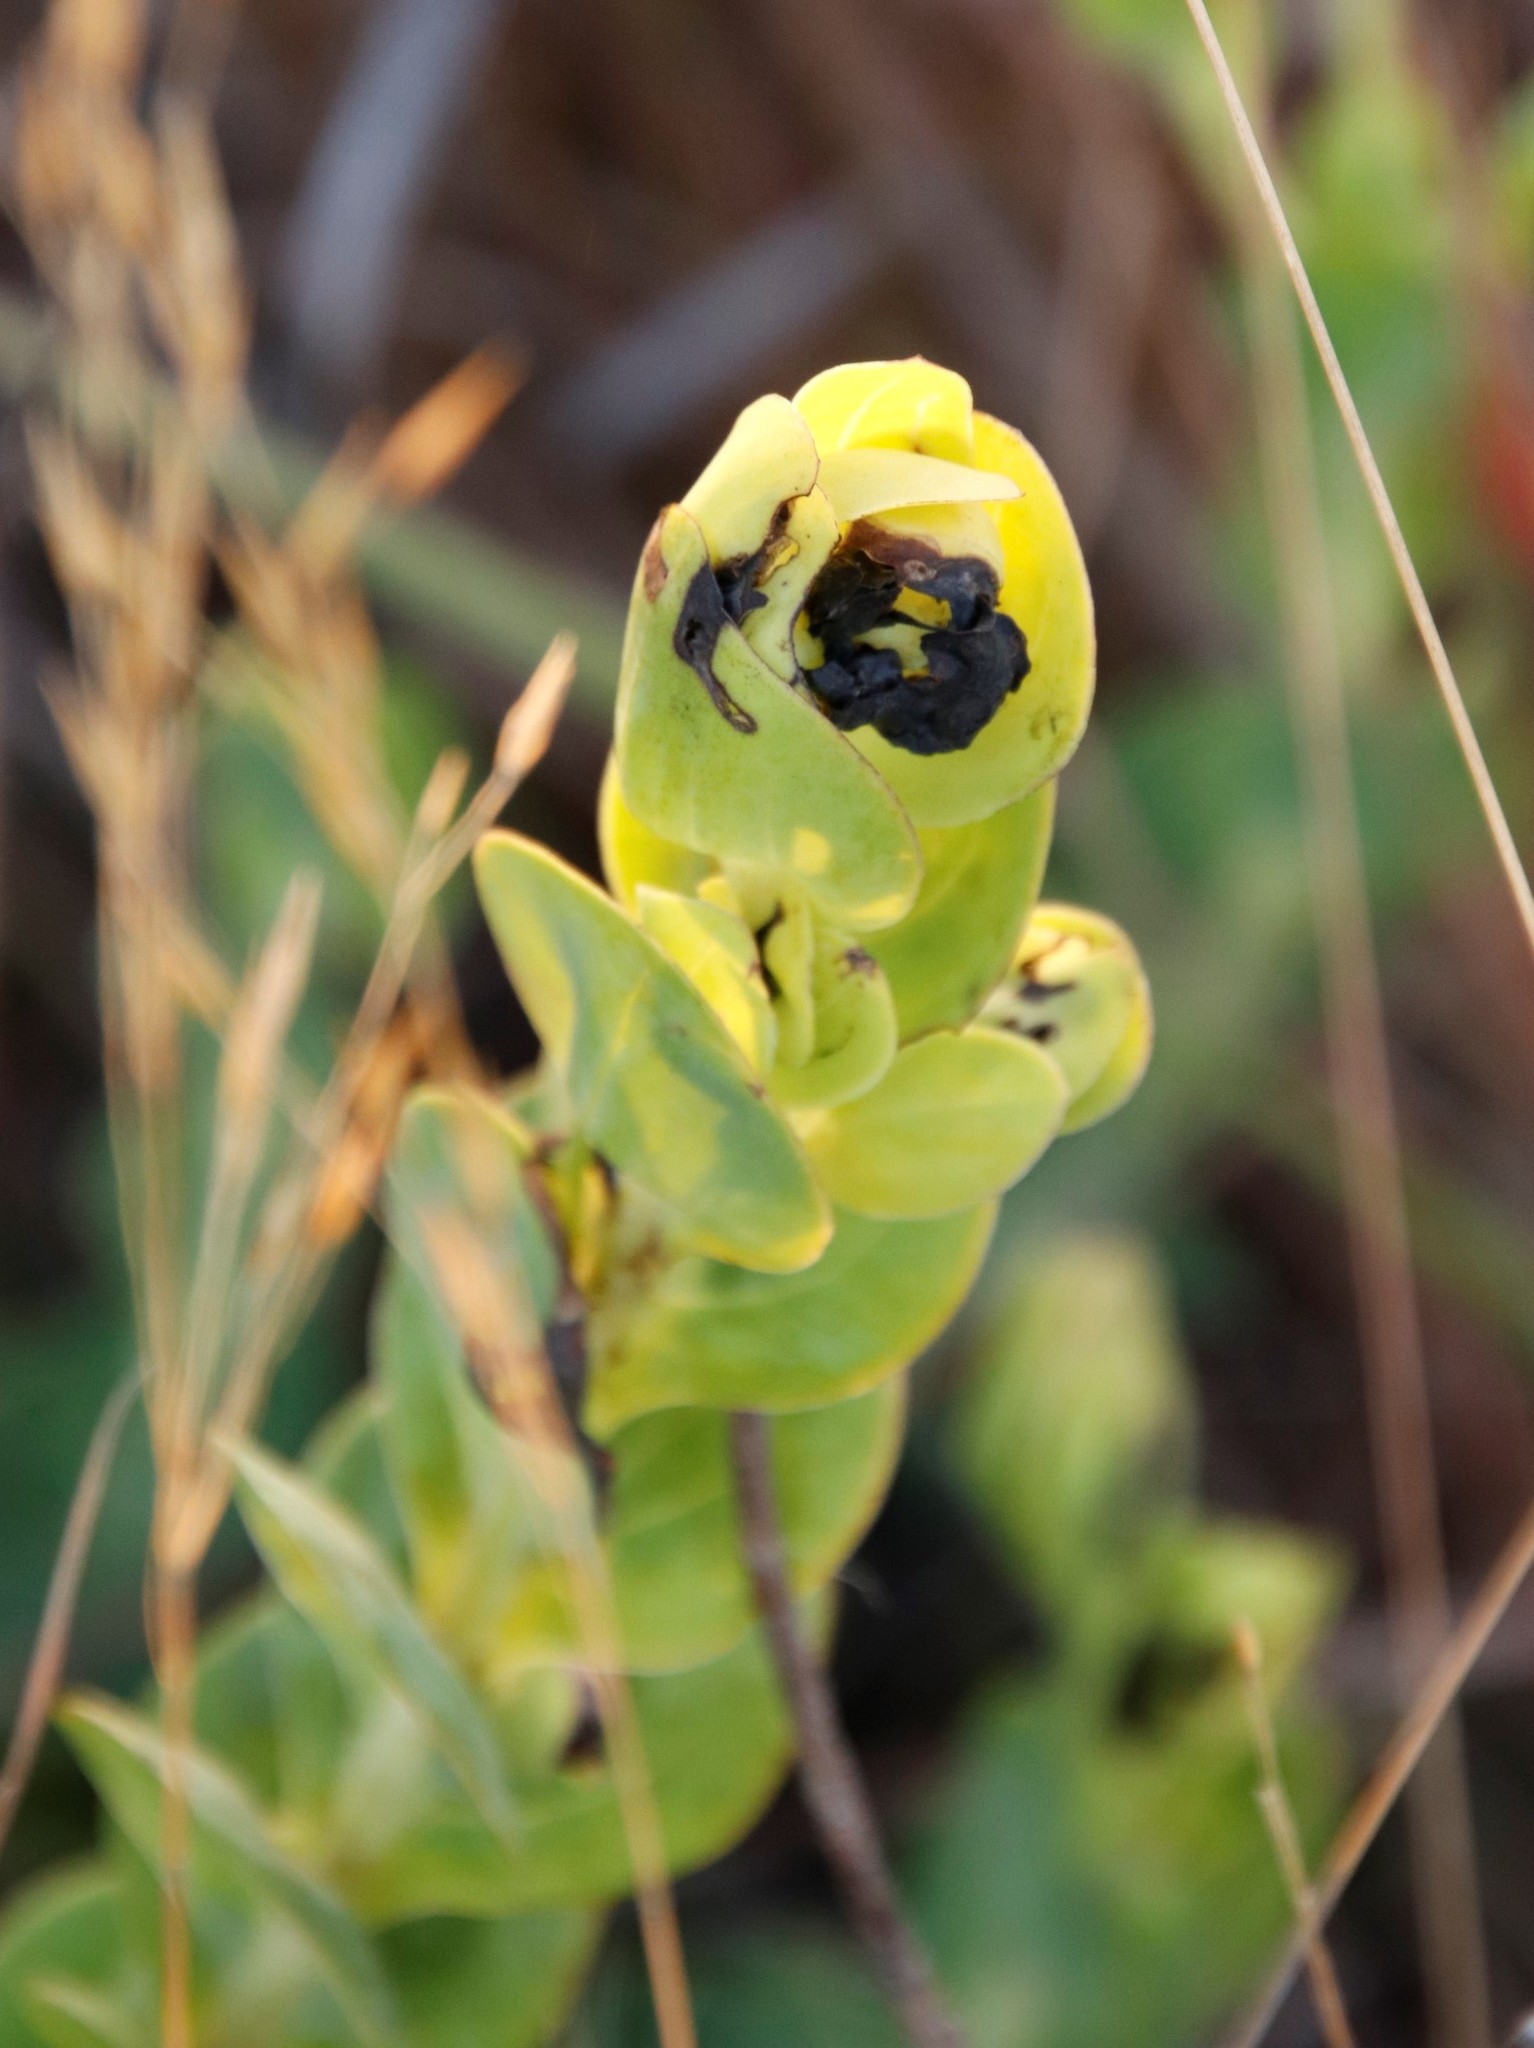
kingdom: Plantae
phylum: Tracheophyta
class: Magnoliopsida
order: Asterales
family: Asteraceae
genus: Lopholaena
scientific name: Lopholaena disticha
